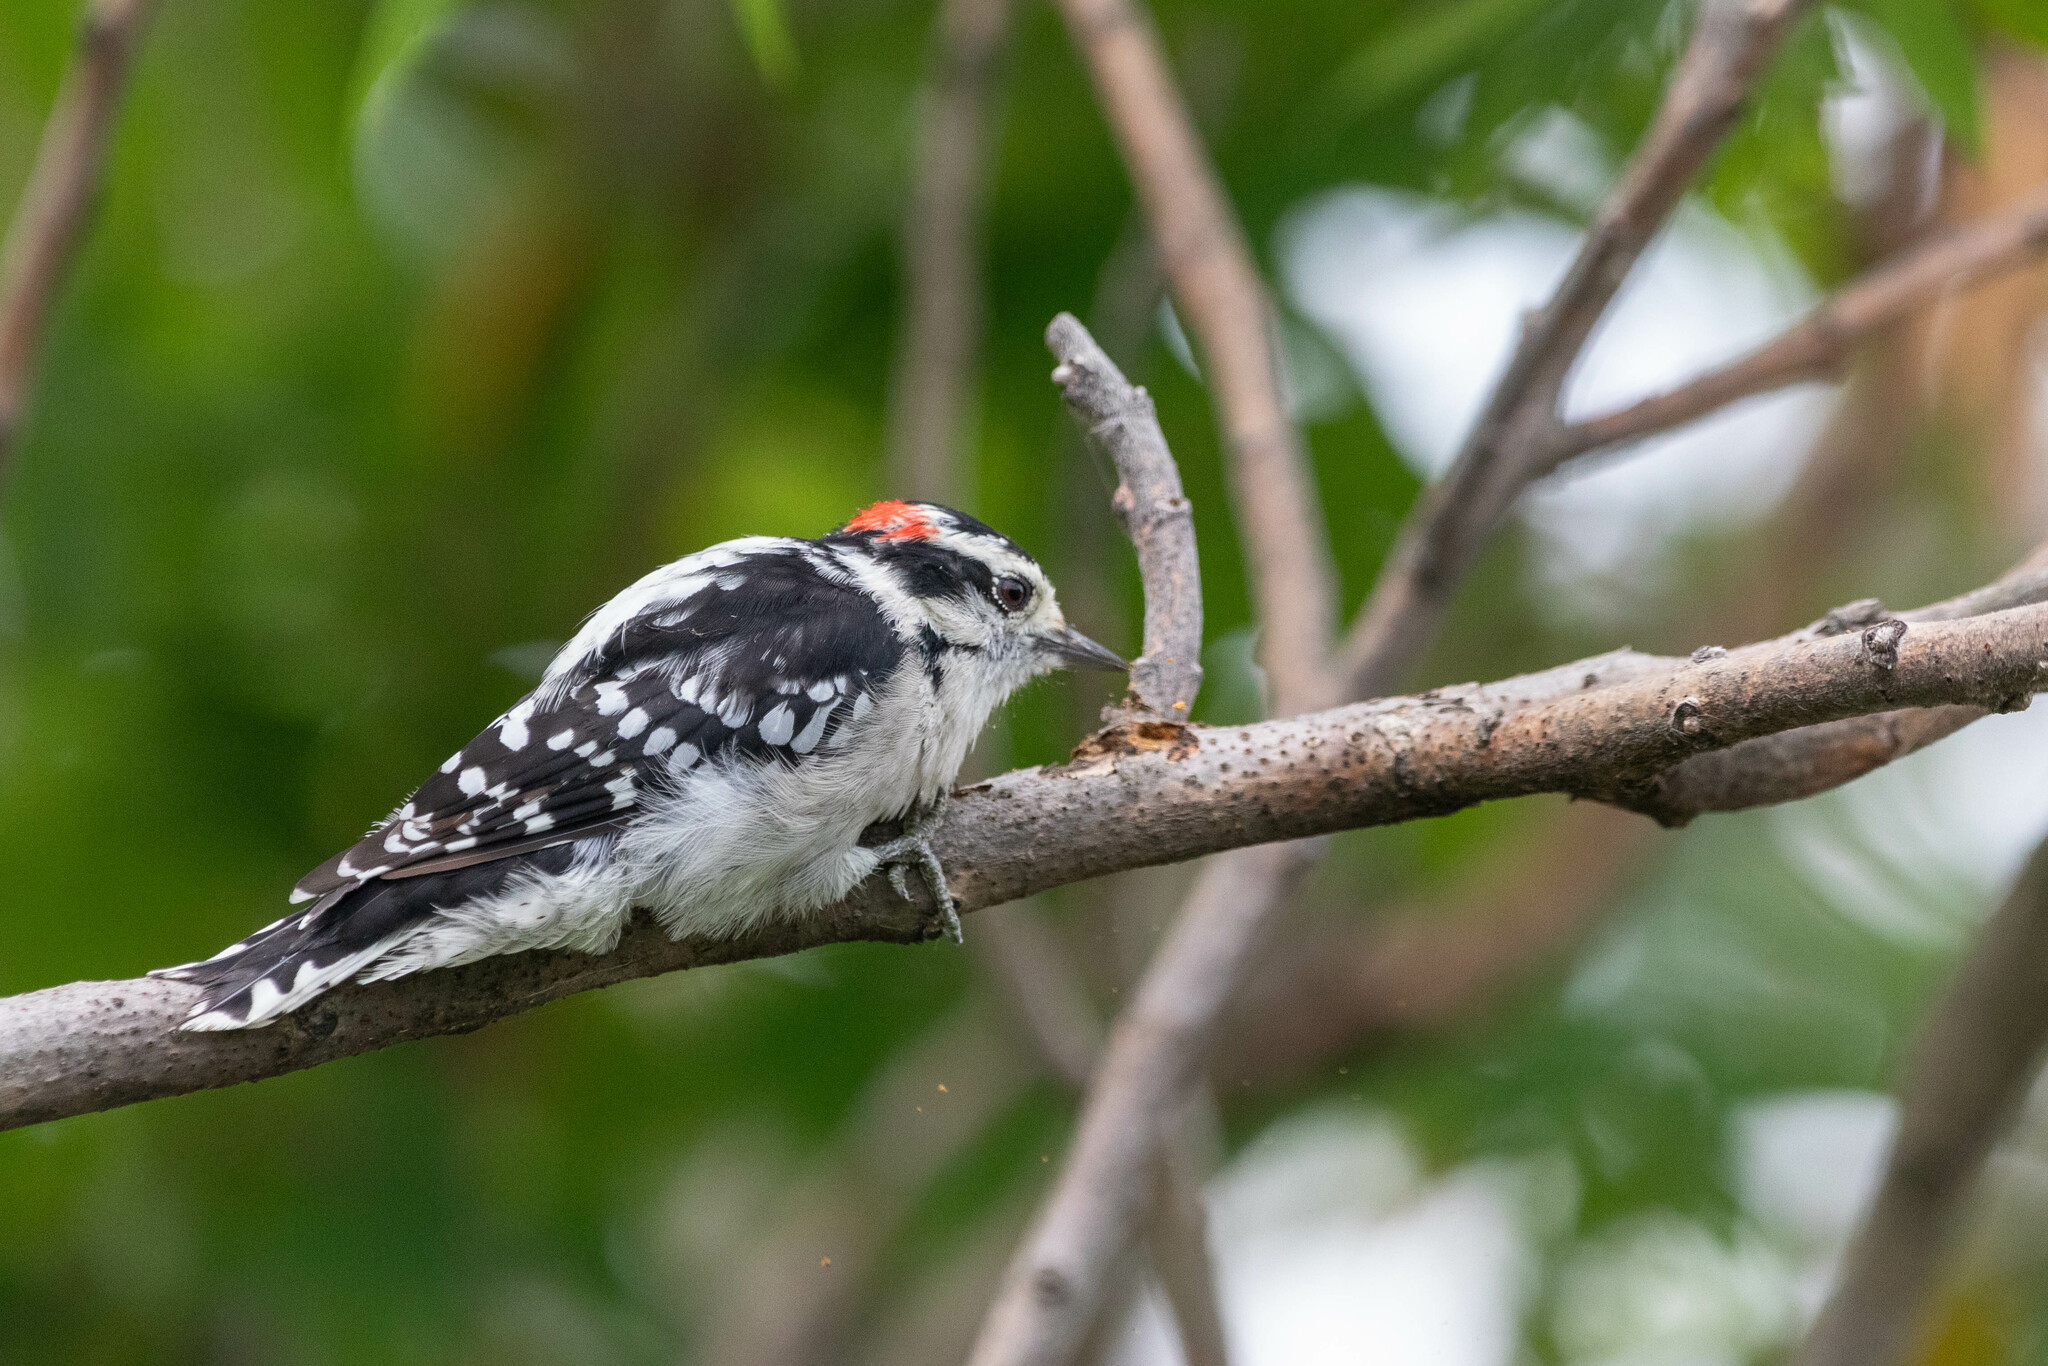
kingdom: Animalia
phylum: Chordata
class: Aves
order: Piciformes
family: Picidae
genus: Dryobates
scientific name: Dryobates pubescens
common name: Downy woodpecker
